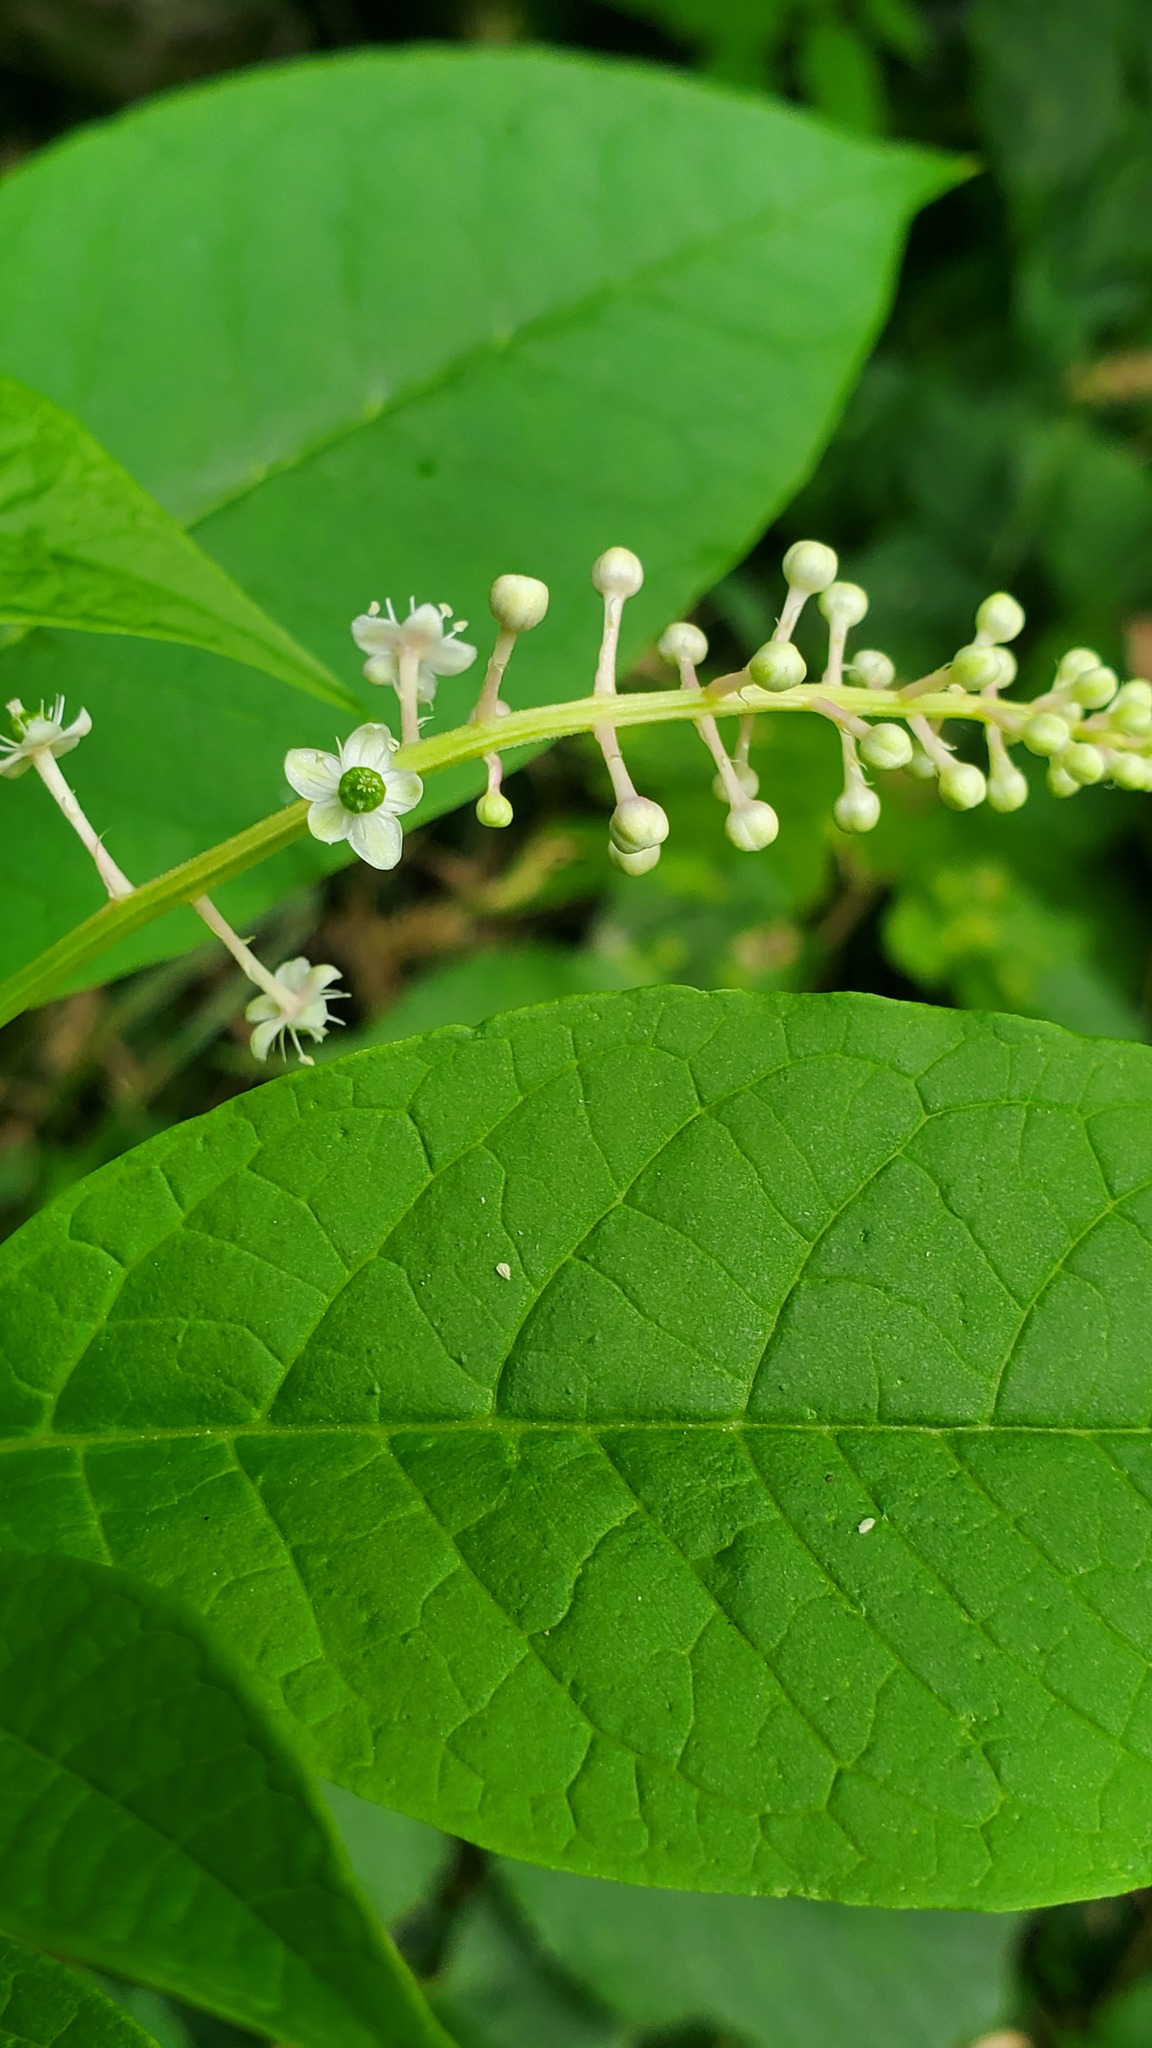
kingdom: Plantae
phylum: Tracheophyta
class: Magnoliopsida
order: Caryophyllales
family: Phytolaccaceae
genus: Phytolacca
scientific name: Phytolacca americana
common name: American pokeweed
